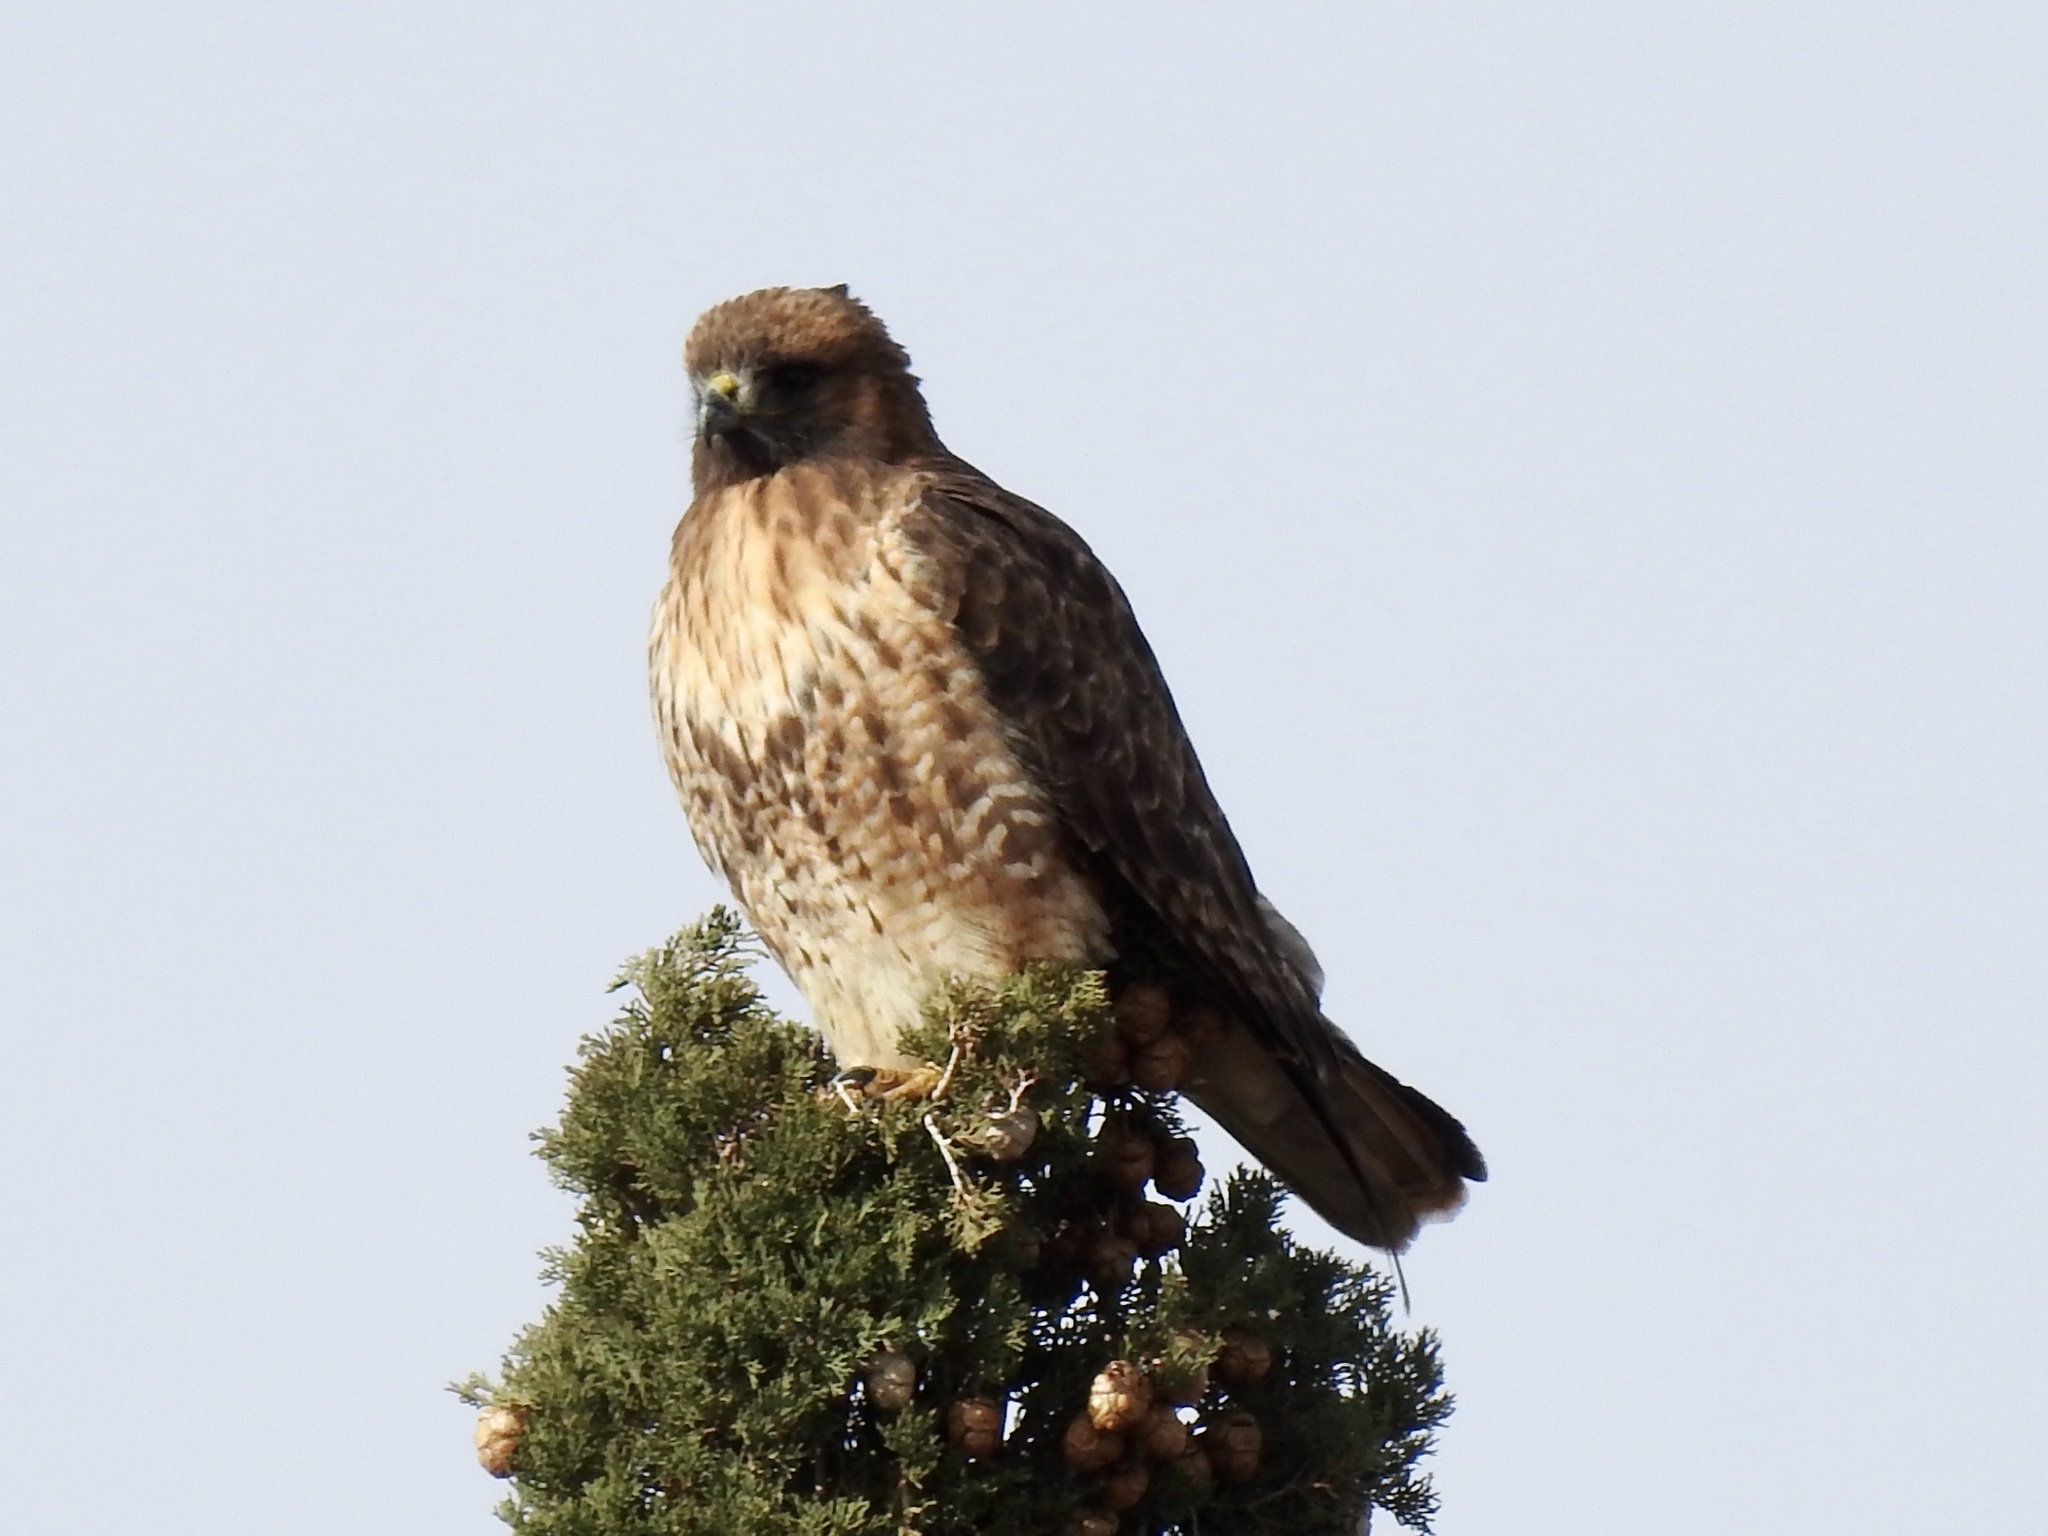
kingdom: Animalia
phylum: Chordata
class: Aves
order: Accipitriformes
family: Accipitridae
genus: Buteo
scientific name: Buteo jamaicensis
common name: Red-tailed hawk
